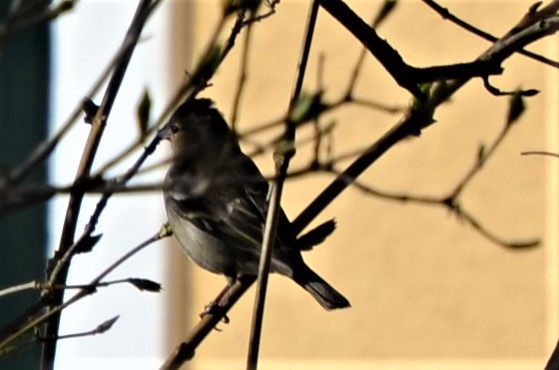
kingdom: Animalia
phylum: Chordata
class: Aves
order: Passeriformes
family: Fringillidae
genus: Fringilla
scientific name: Fringilla coelebs
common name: Common chaffinch
